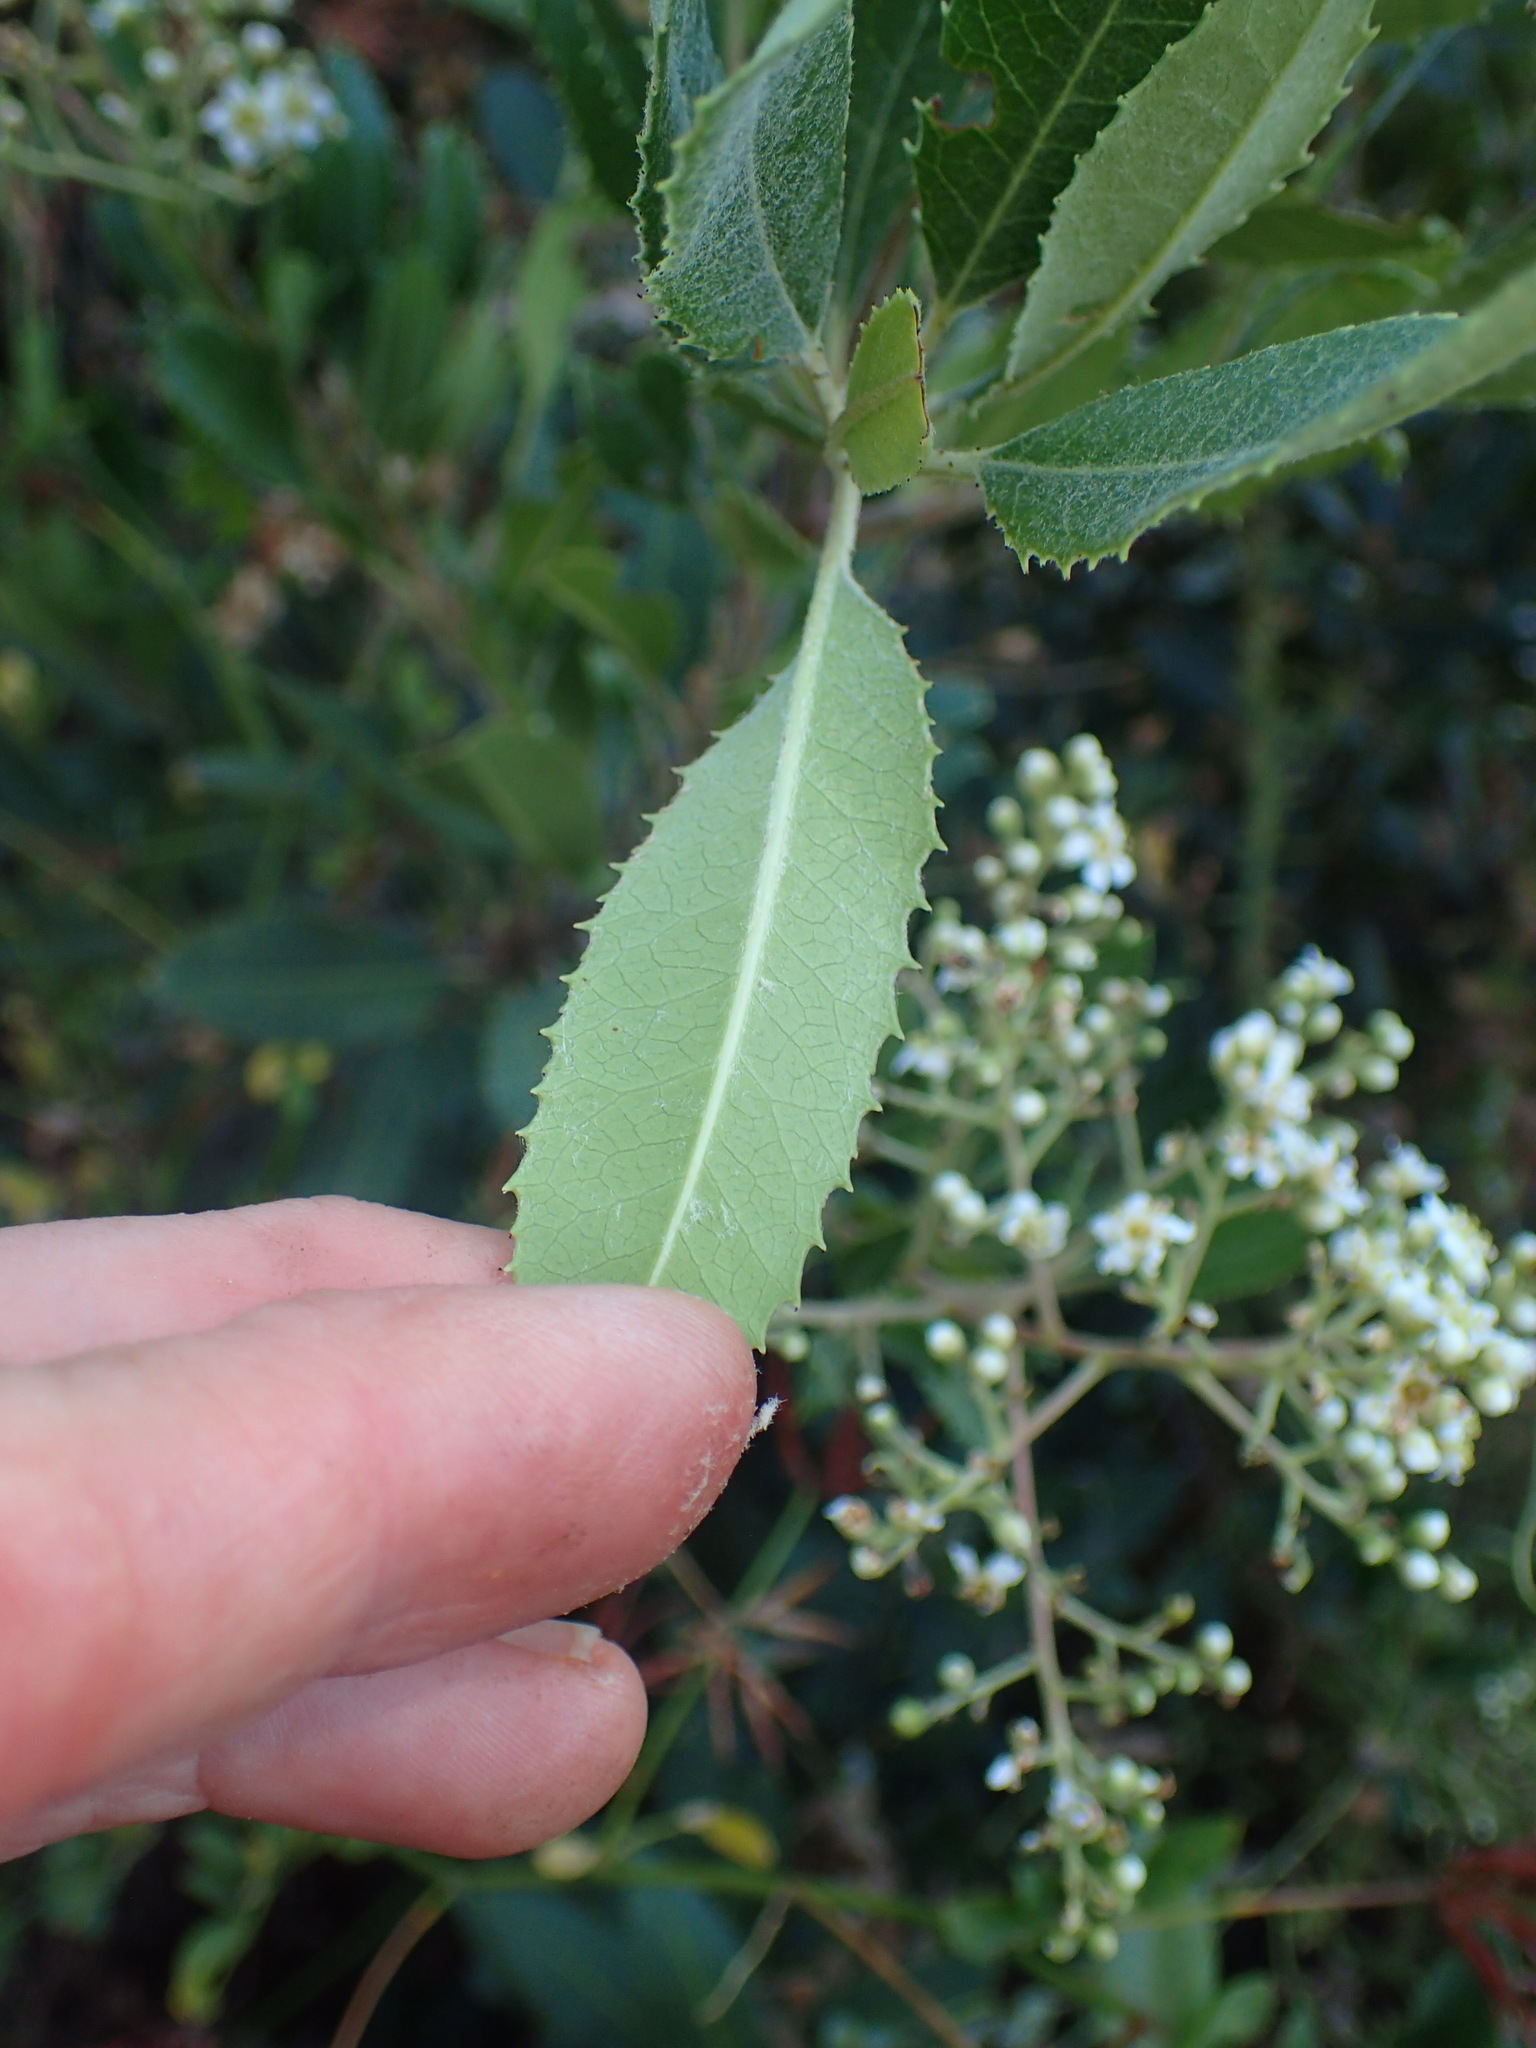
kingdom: Plantae
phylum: Tracheophyta
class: Magnoliopsida
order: Rosales
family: Rosaceae
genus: Heteromeles
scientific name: Heteromeles arbutifolia
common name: California-holly
